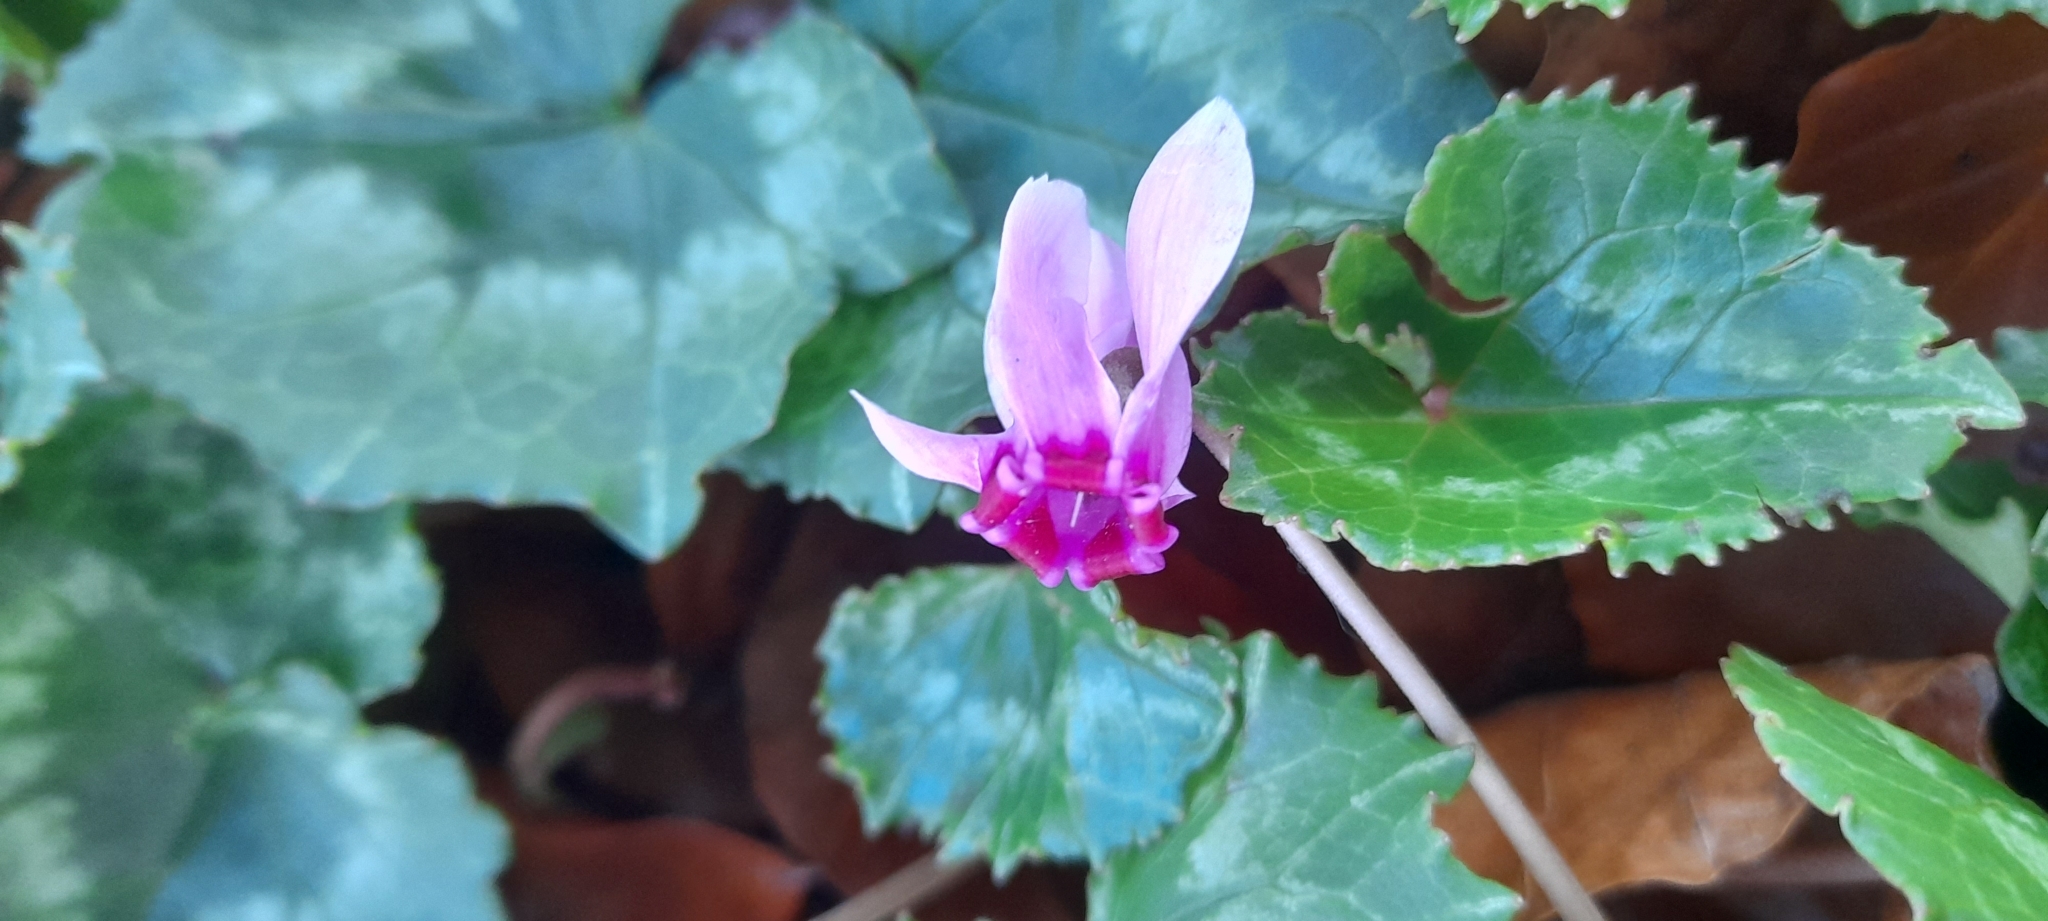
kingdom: Plantae
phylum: Tracheophyta
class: Magnoliopsida
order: Ericales
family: Primulaceae
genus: Cyclamen
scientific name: Cyclamen hederifolium
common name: Sowbread
